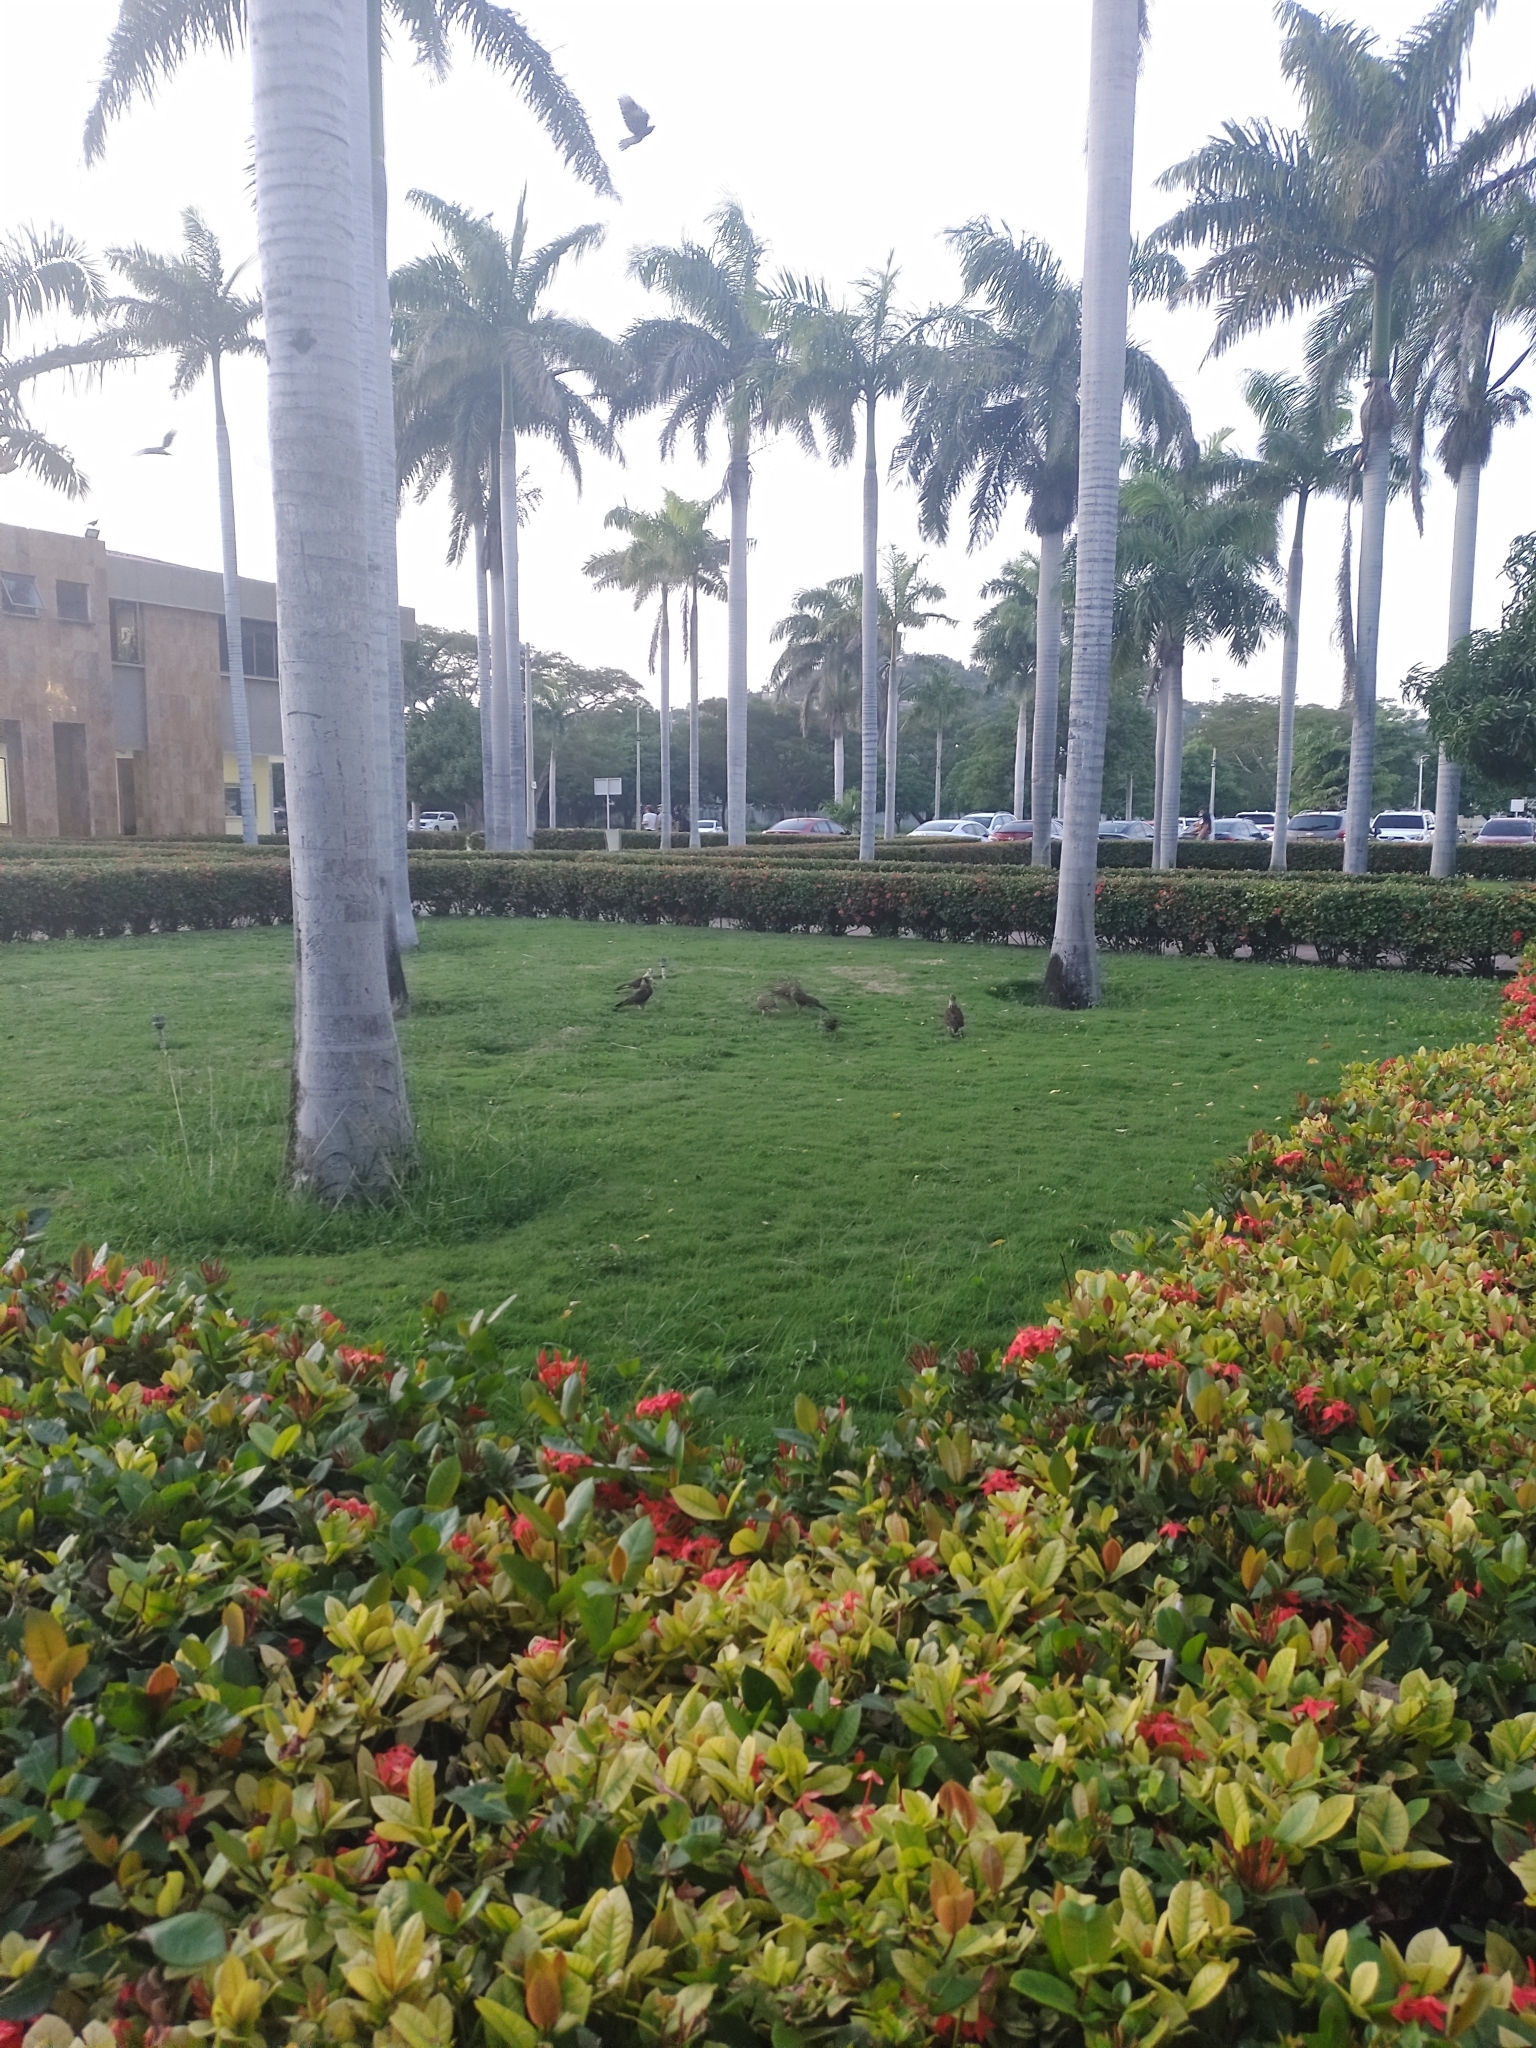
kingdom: Animalia
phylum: Chordata
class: Aves
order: Falconiformes
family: Falconidae
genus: Daptrius
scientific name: Daptrius
